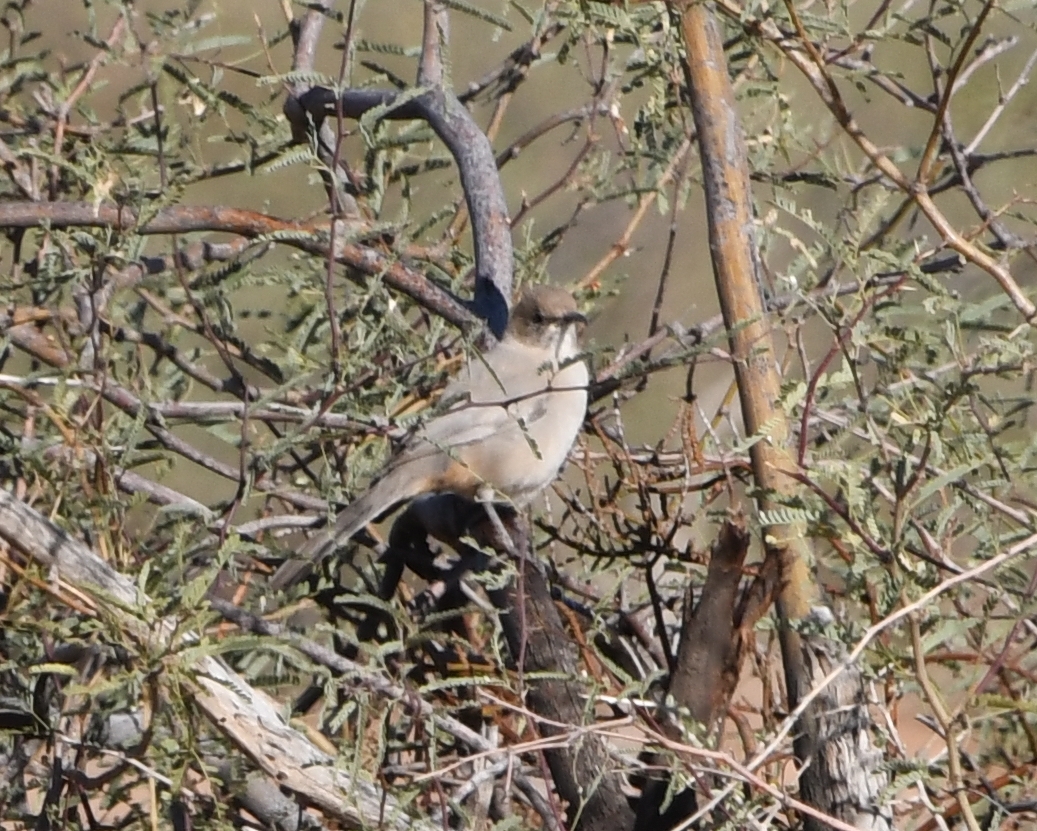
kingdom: Animalia
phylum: Chordata
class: Aves
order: Passeriformes
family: Mimidae
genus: Toxostoma
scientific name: Toxostoma lecontei
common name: Le conte's thrasher
